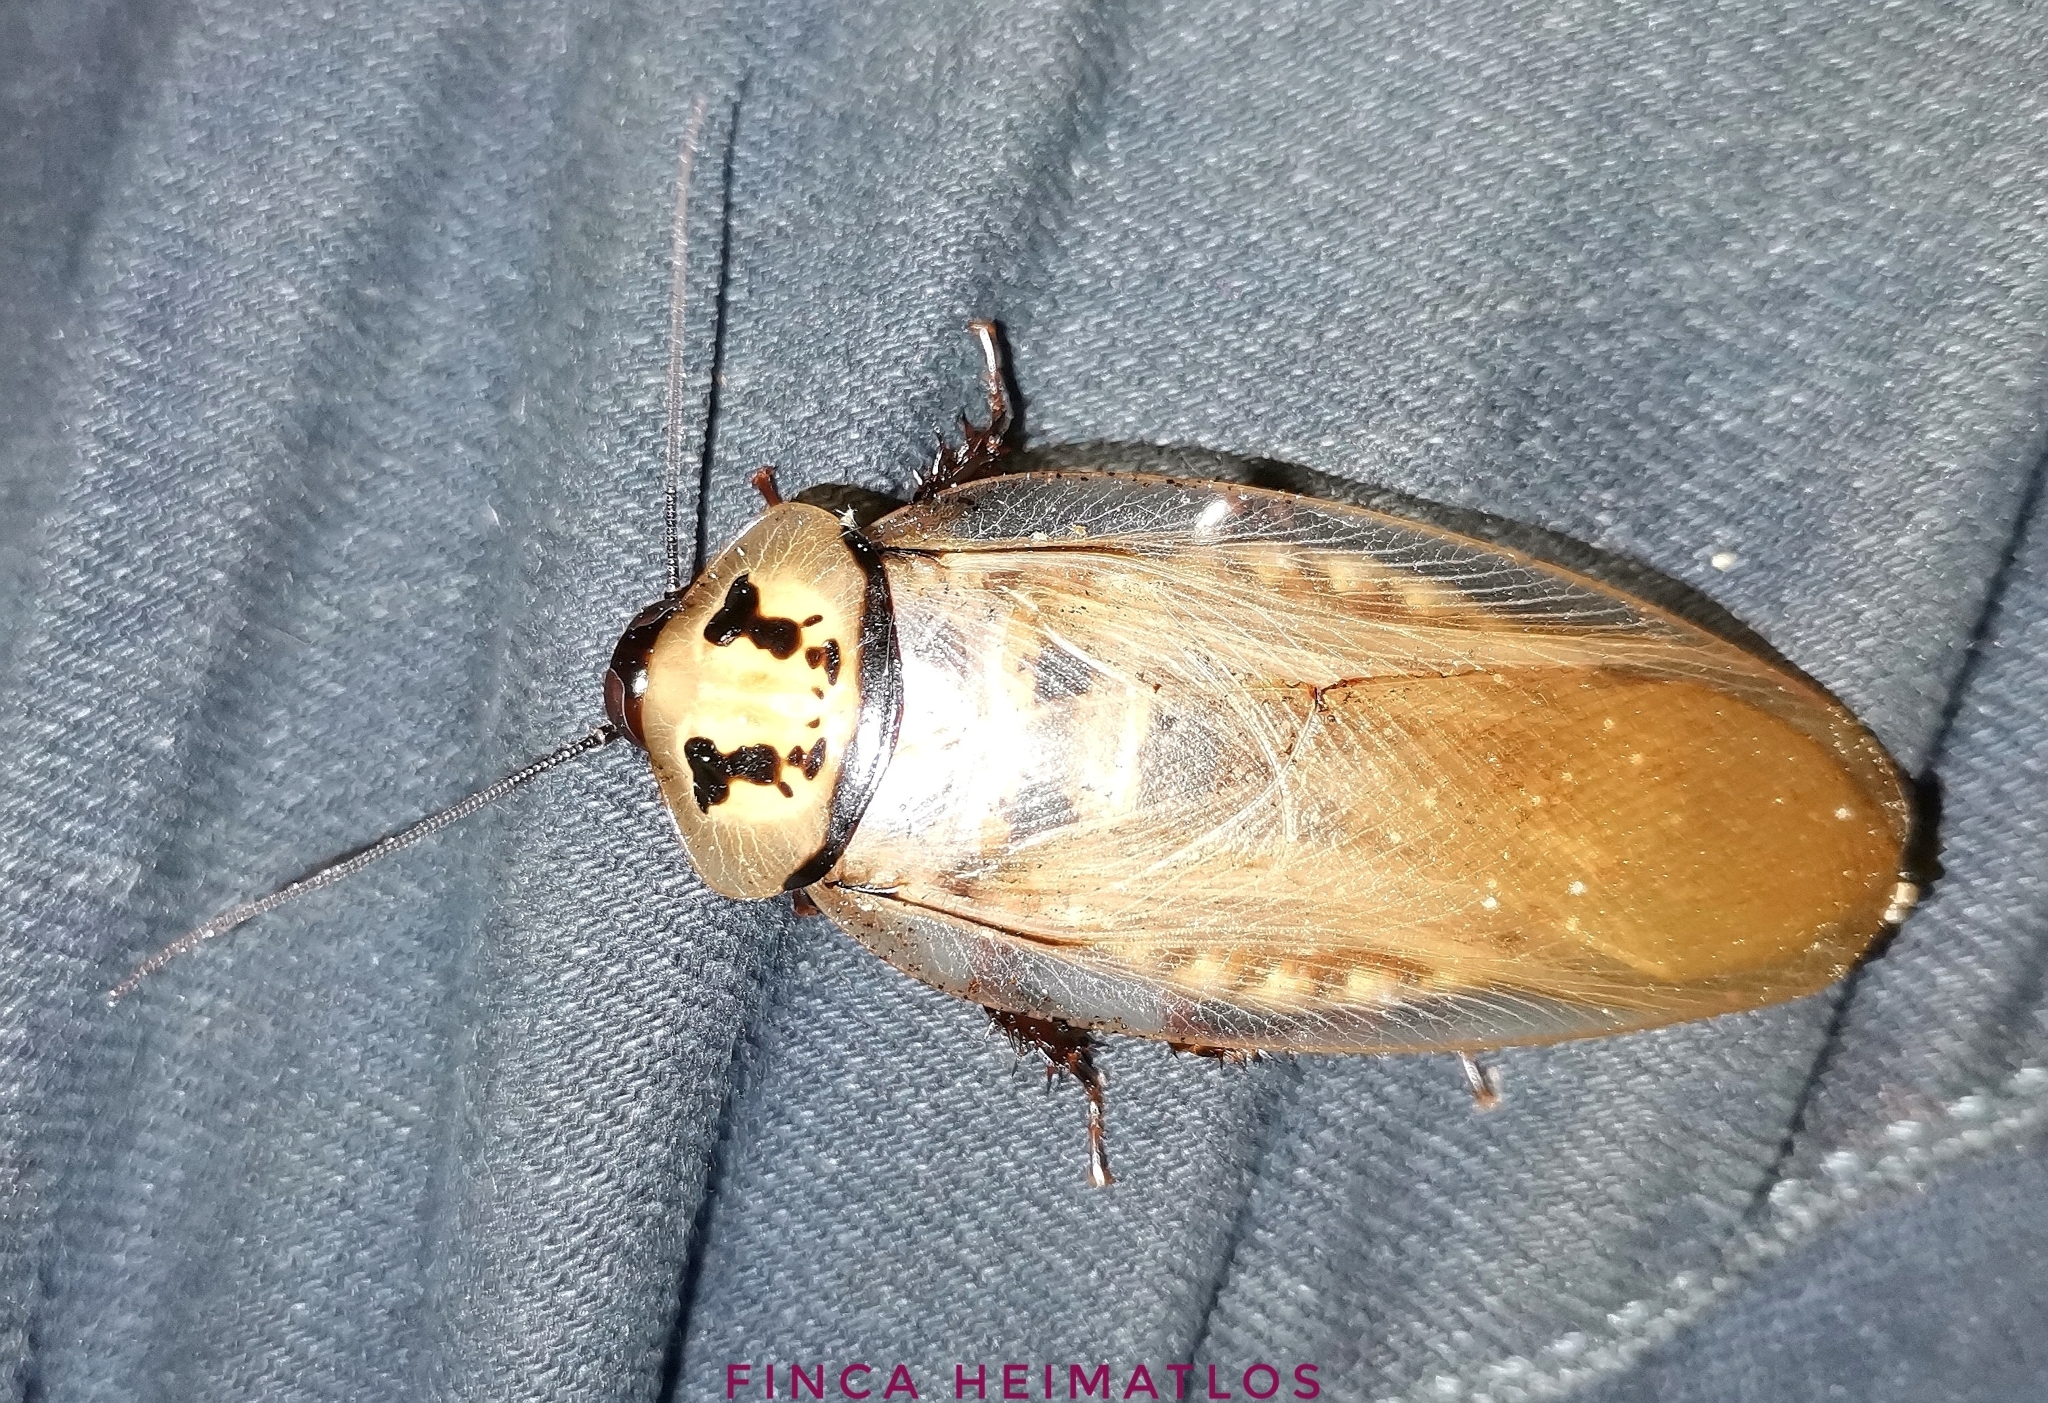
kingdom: Animalia
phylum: Arthropoda
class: Insecta
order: Blattodea
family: Blaberidae
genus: Eublaberus
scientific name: Eublaberus distanti
